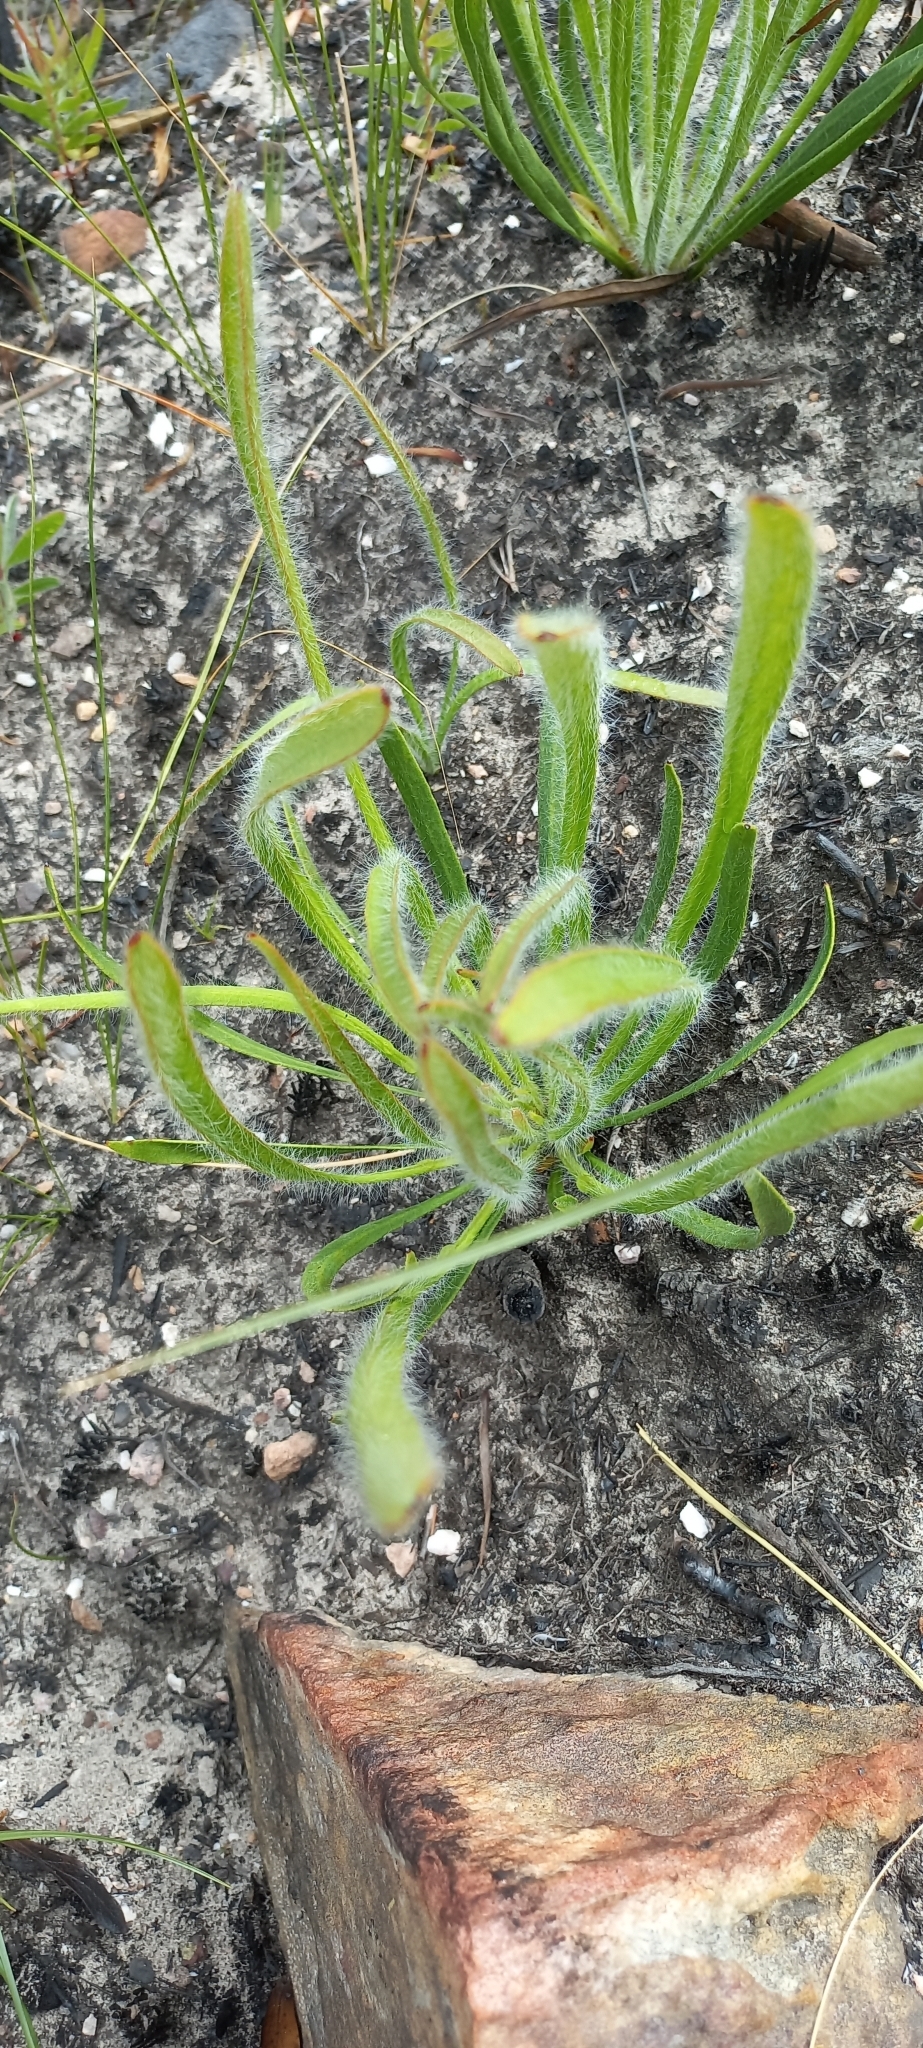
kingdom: Plantae
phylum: Tracheophyta
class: Magnoliopsida
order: Proteales
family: Proteaceae
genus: Protea
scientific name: Protea scabra
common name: Sandpaper-leaf sugarbush
